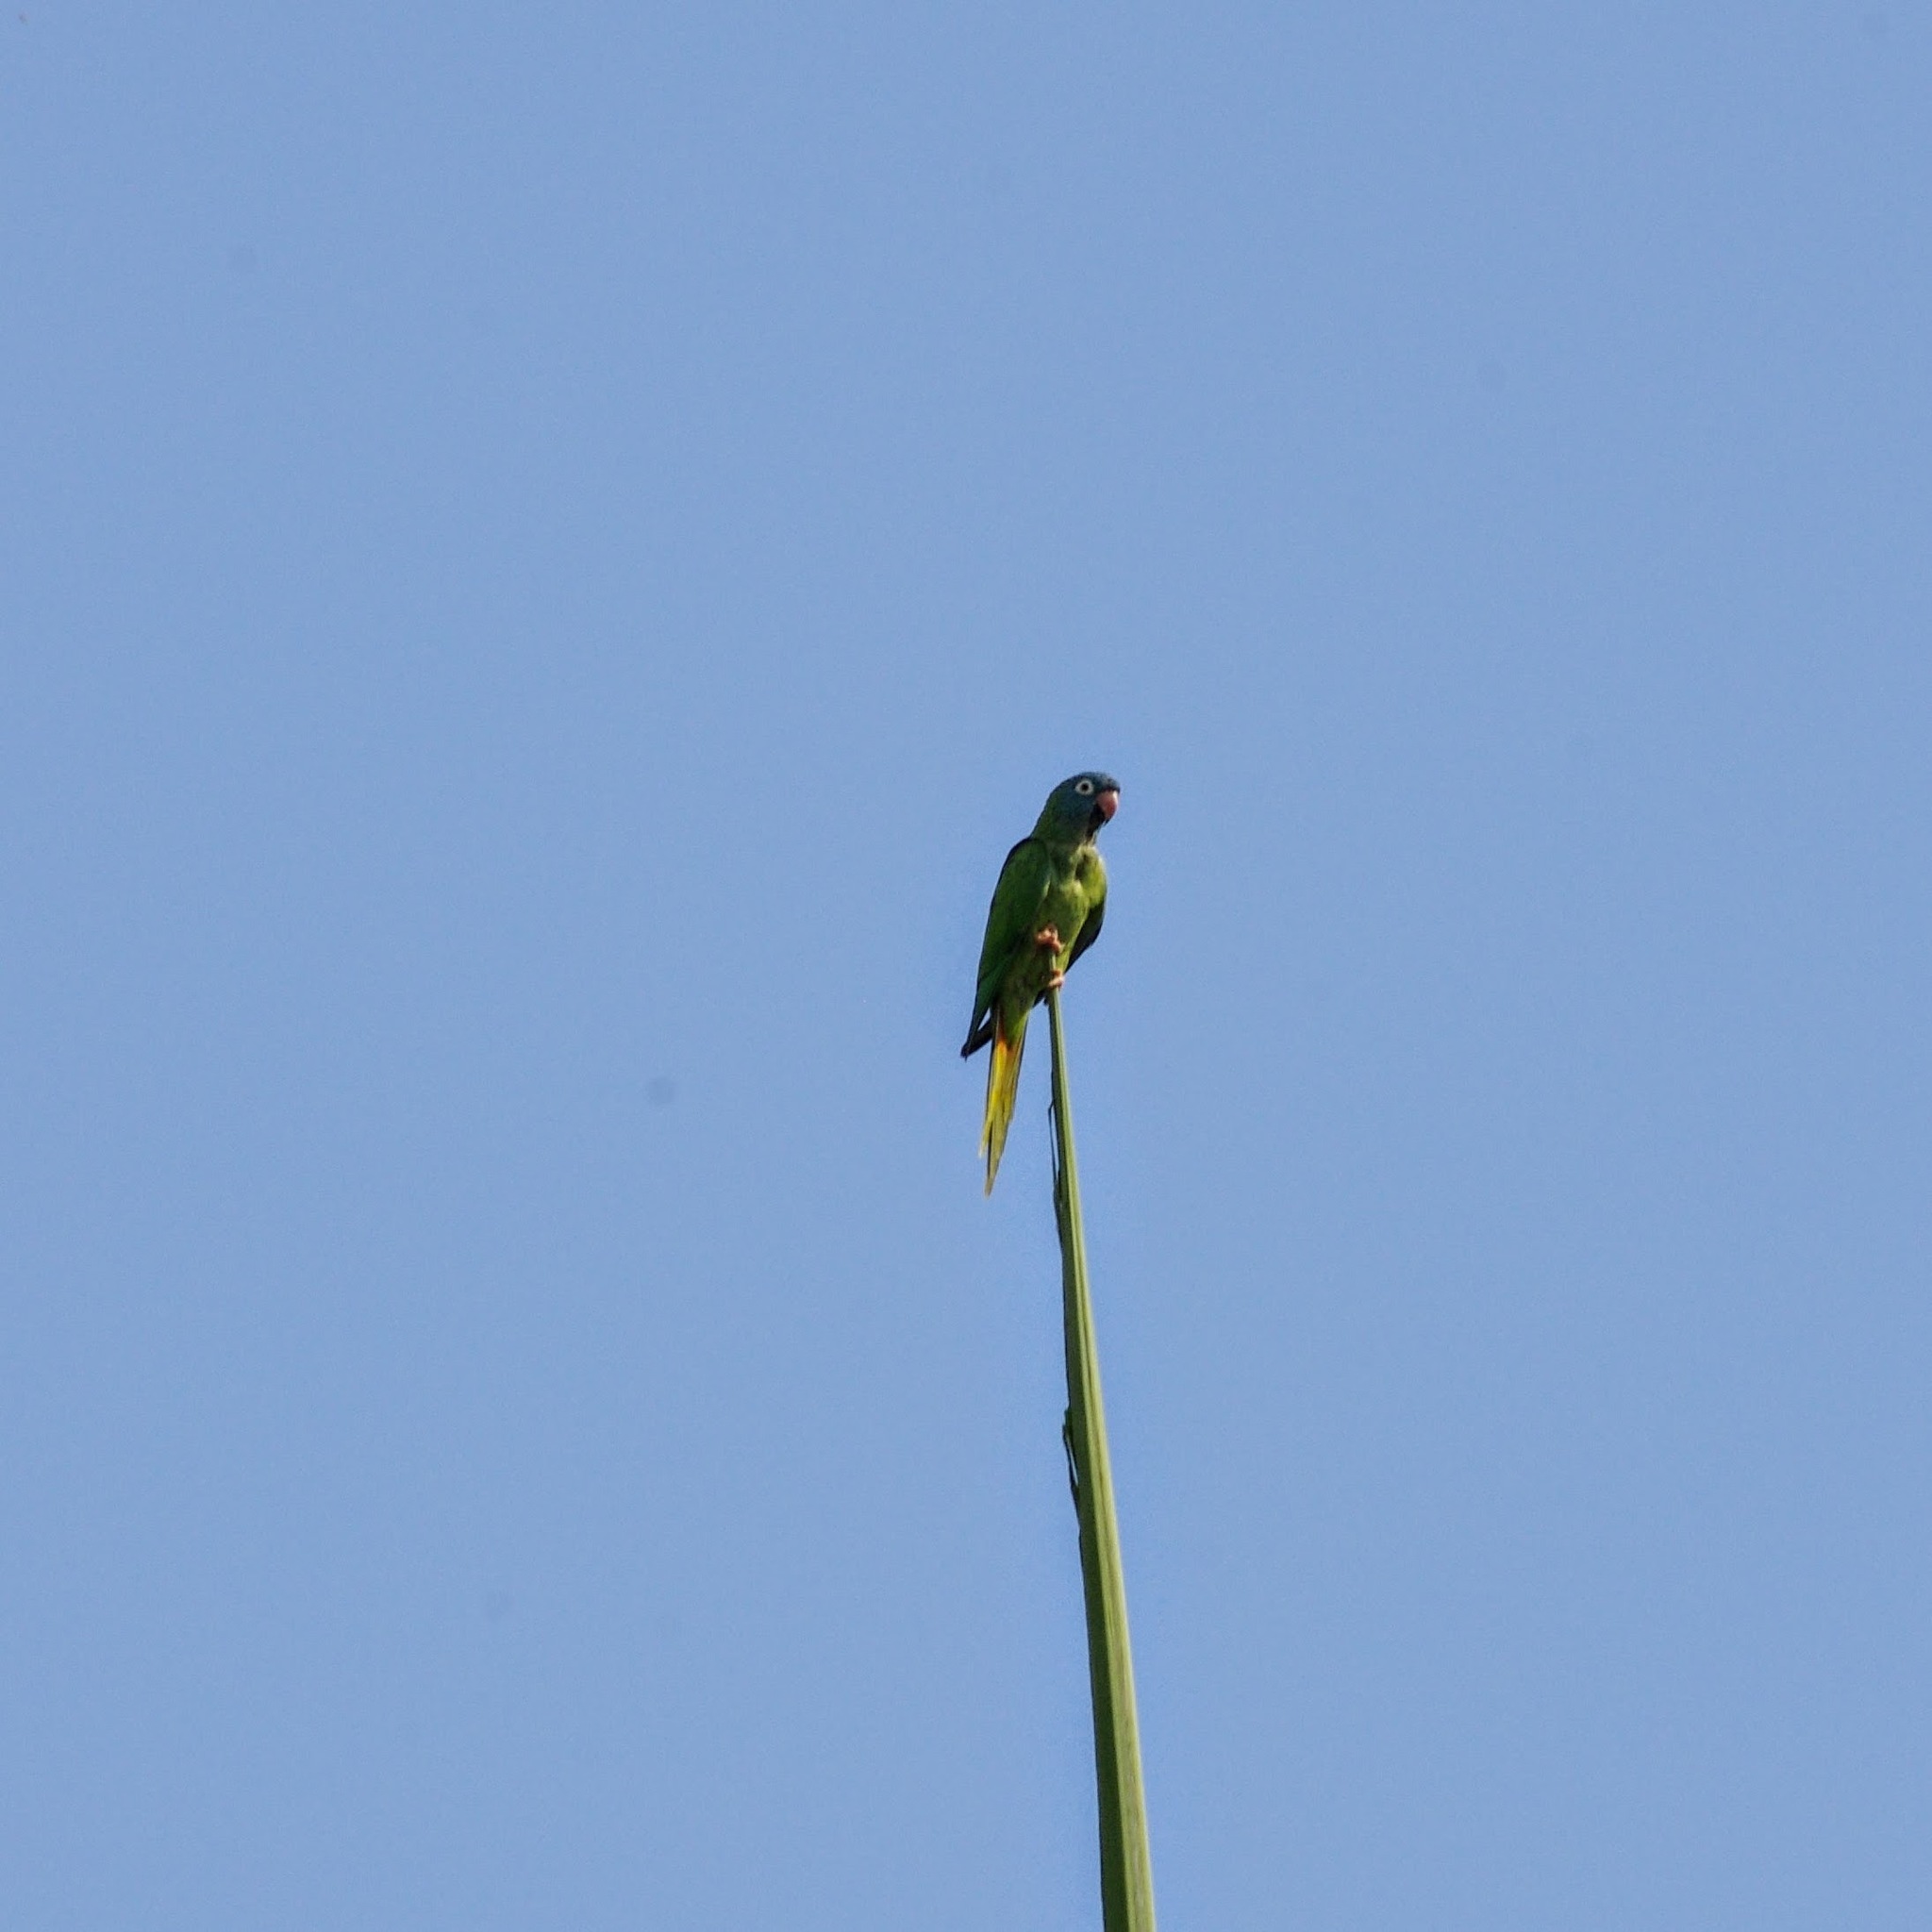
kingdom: Animalia
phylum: Chordata
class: Aves
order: Psittaciformes
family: Psittacidae
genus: Aratinga
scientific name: Aratinga acuticaudata
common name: Blue-crowned parakeet
